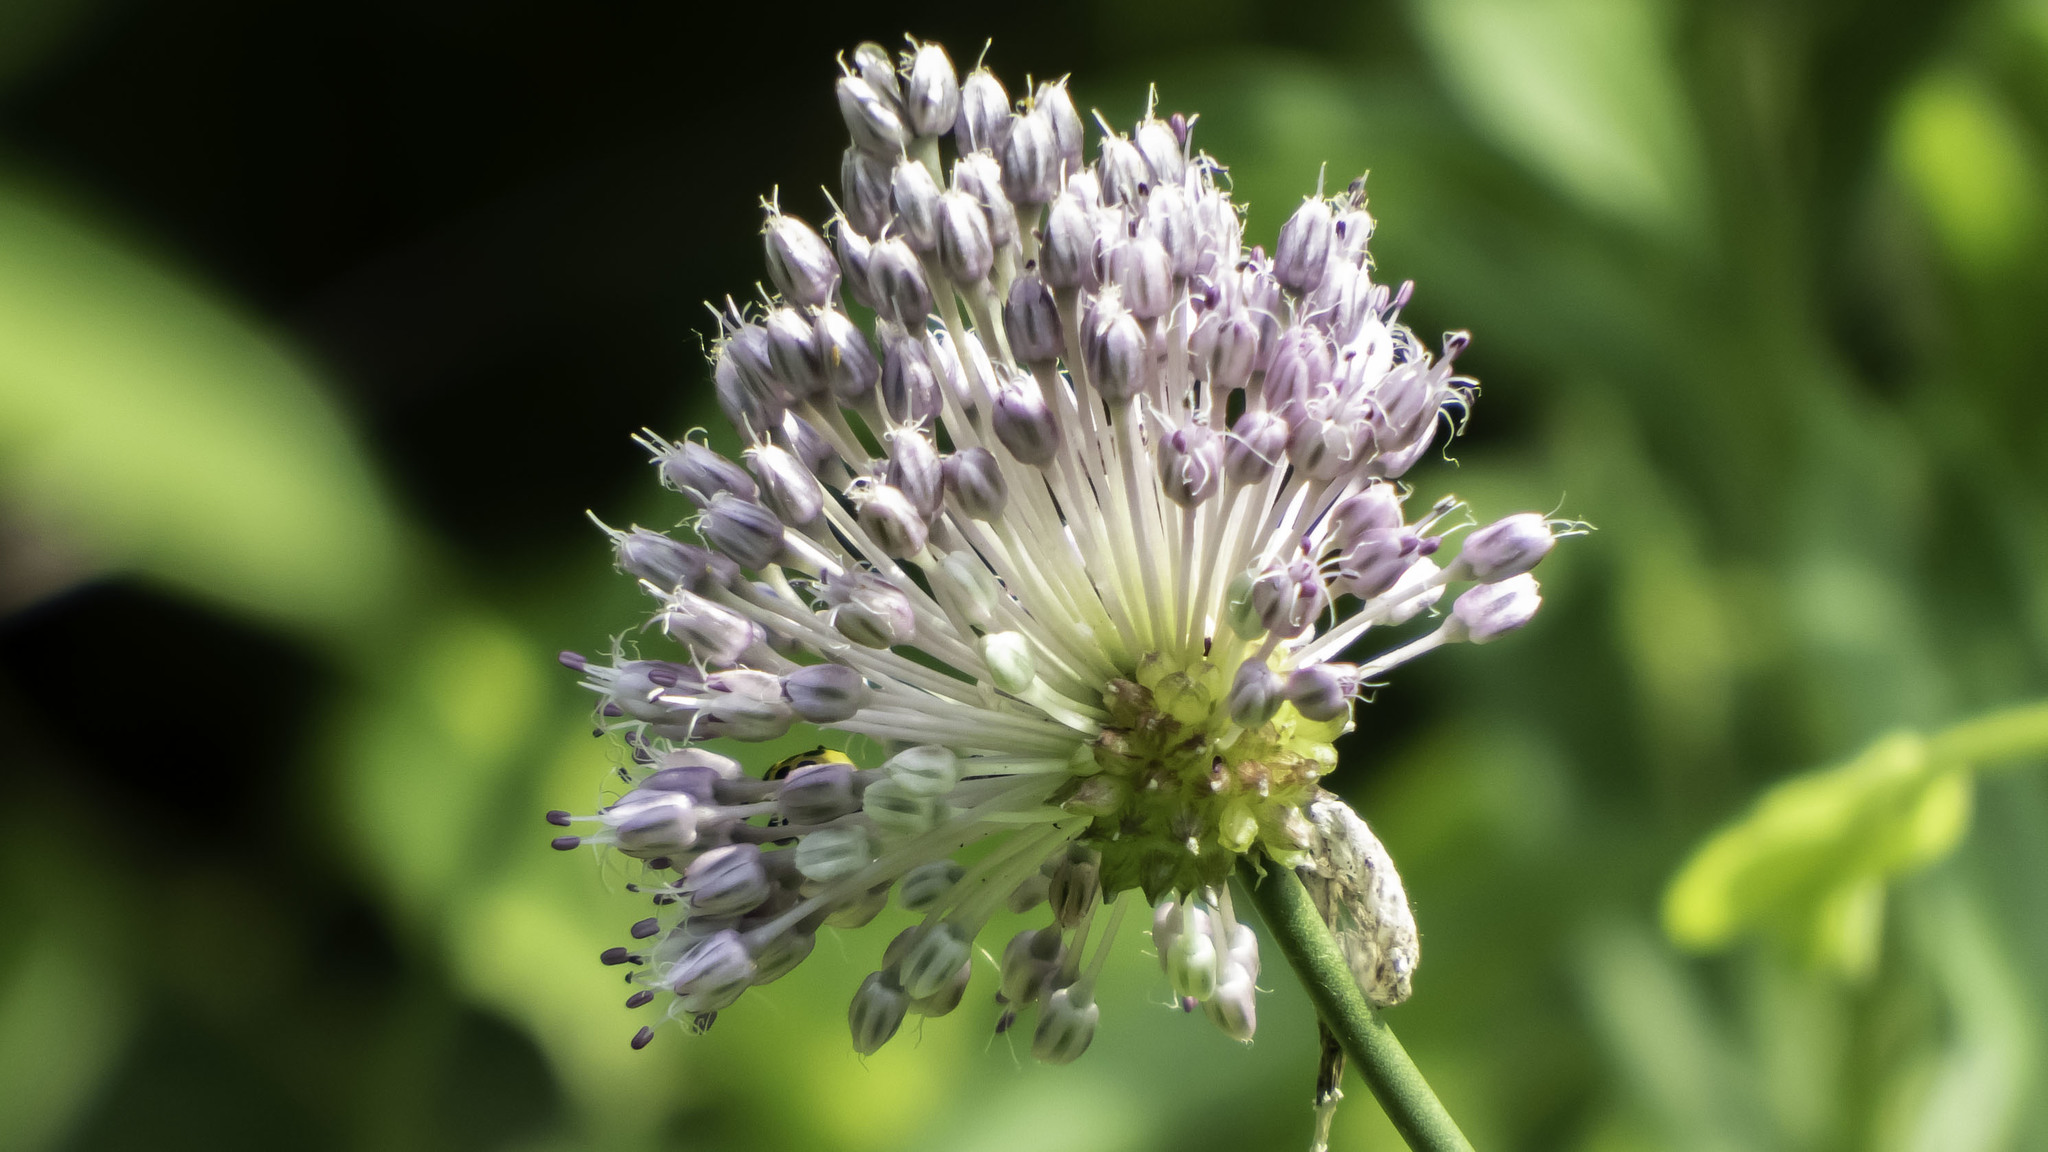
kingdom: Plantae
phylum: Tracheophyta
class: Liliopsida
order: Asparagales
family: Amaryllidaceae
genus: Allium
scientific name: Allium vineale
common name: Crow garlic
